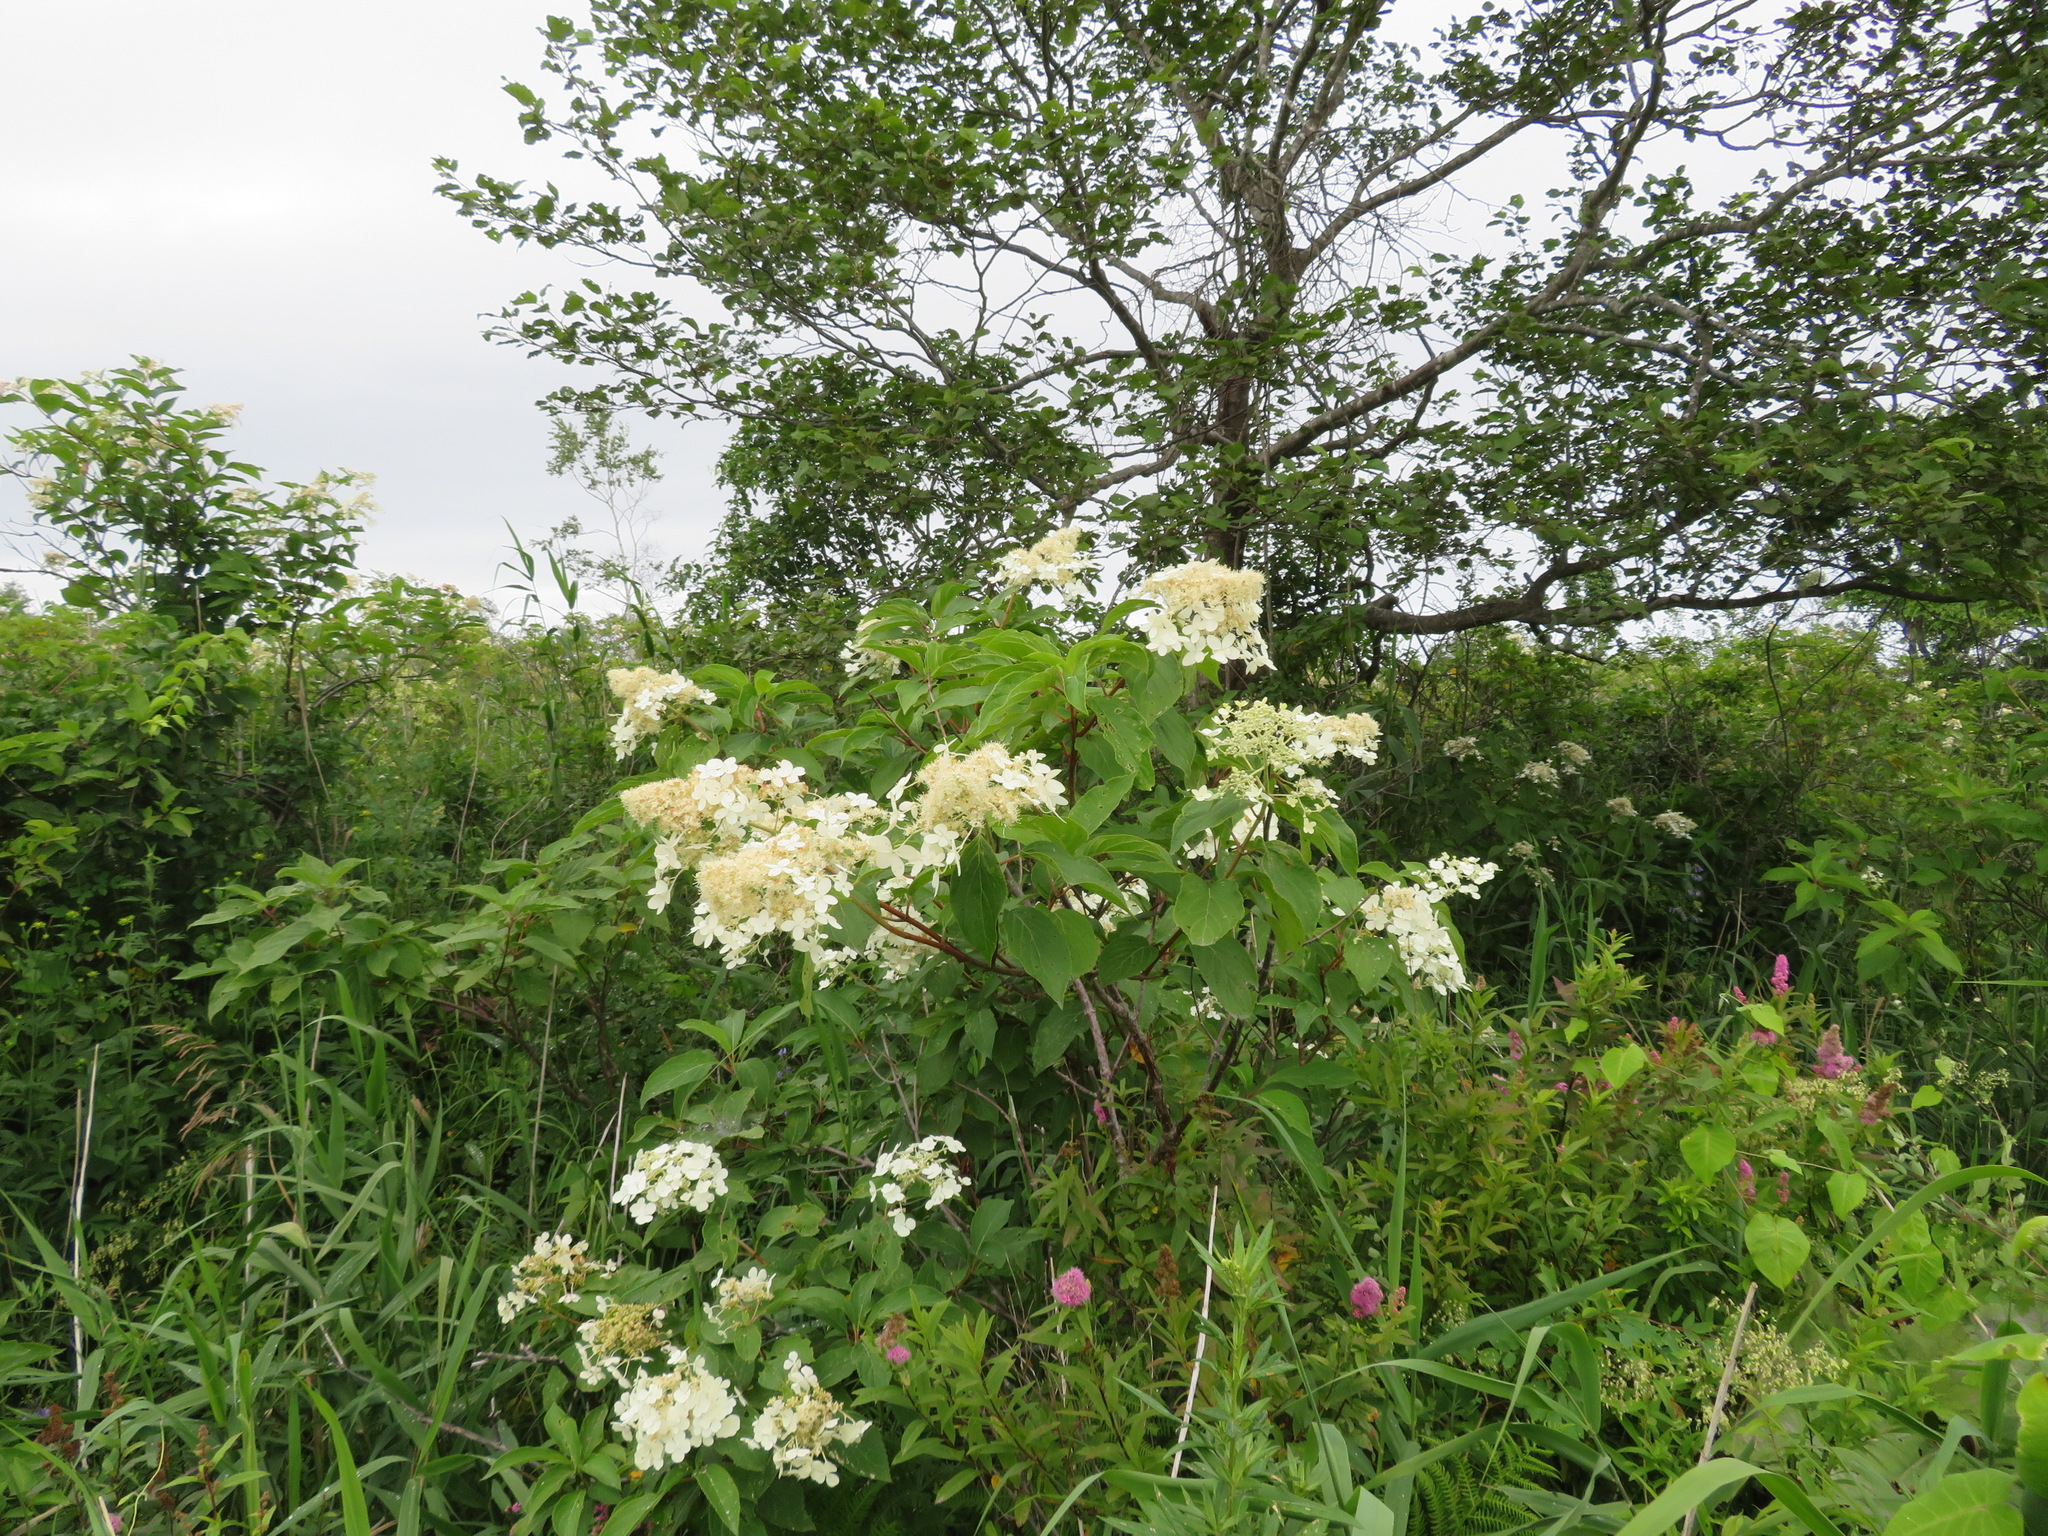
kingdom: Plantae
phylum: Tracheophyta
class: Magnoliopsida
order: Cornales
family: Hydrangeaceae
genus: Hydrangea
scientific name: Hydrangea paniculata
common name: Panicled hydrangea
